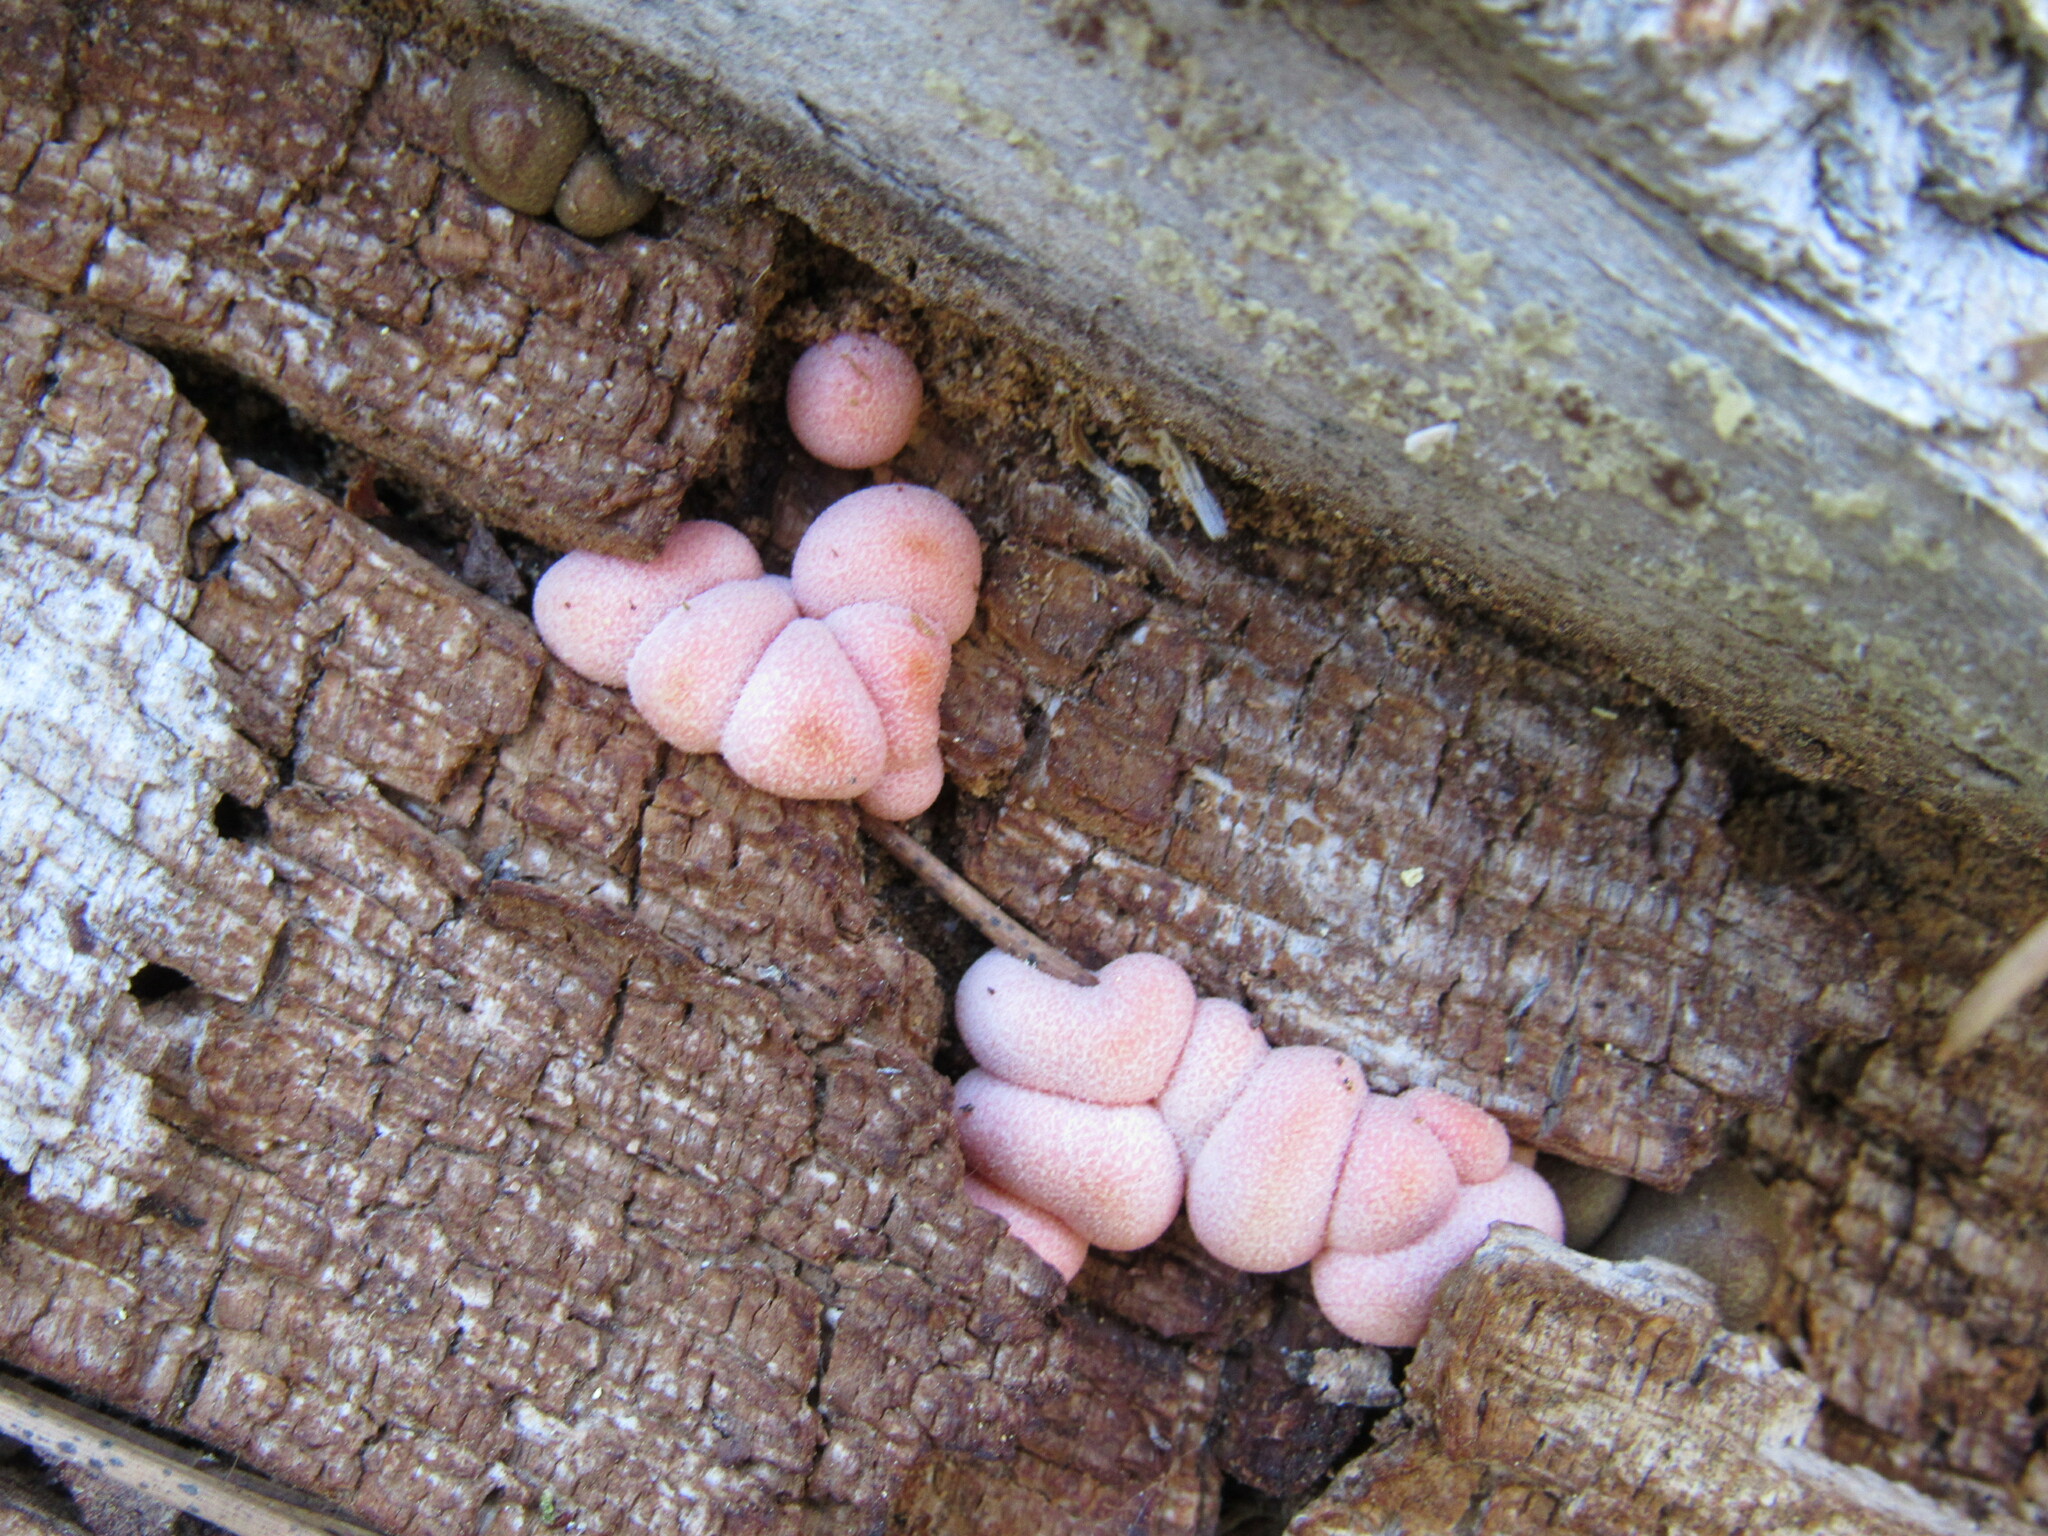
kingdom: Protozoa
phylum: Mycetozoa
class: Myxomycetes
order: Cribrariales
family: Tubiferaceae
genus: Lycogala
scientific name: Lycogala epidendrum
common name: Wolf's milk
